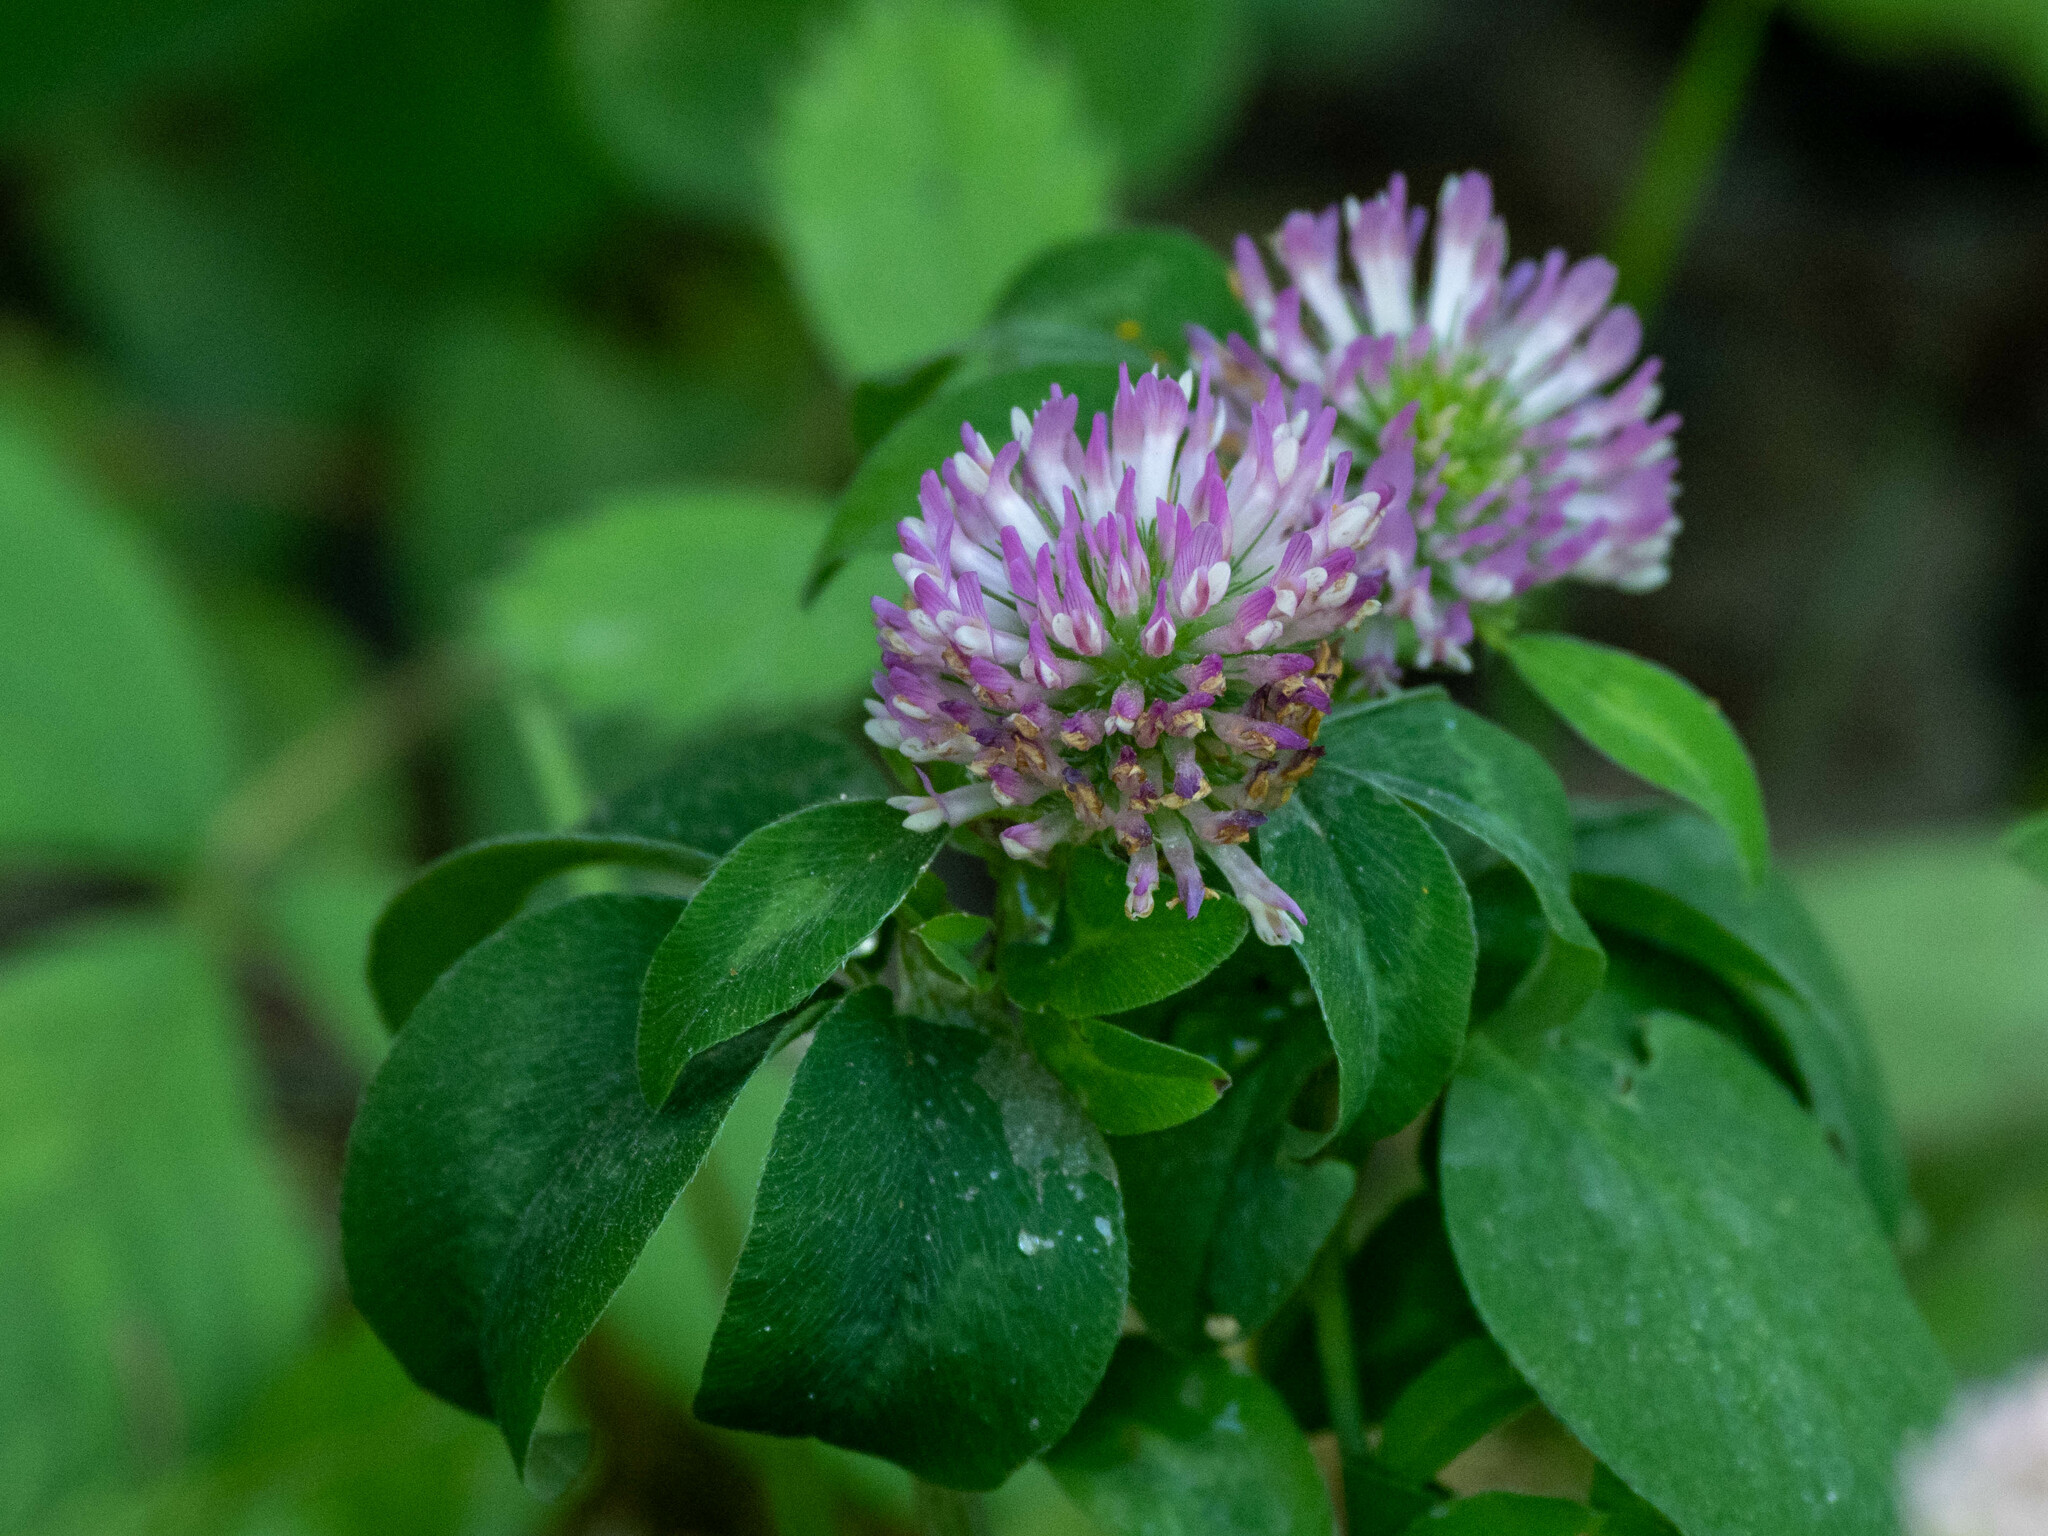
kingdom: Plantae
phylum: Tracheophyta
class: Magnoliopsida
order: Fabales
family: Fabaceae
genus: Trifolium
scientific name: Trifolium pratense
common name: Red clover
